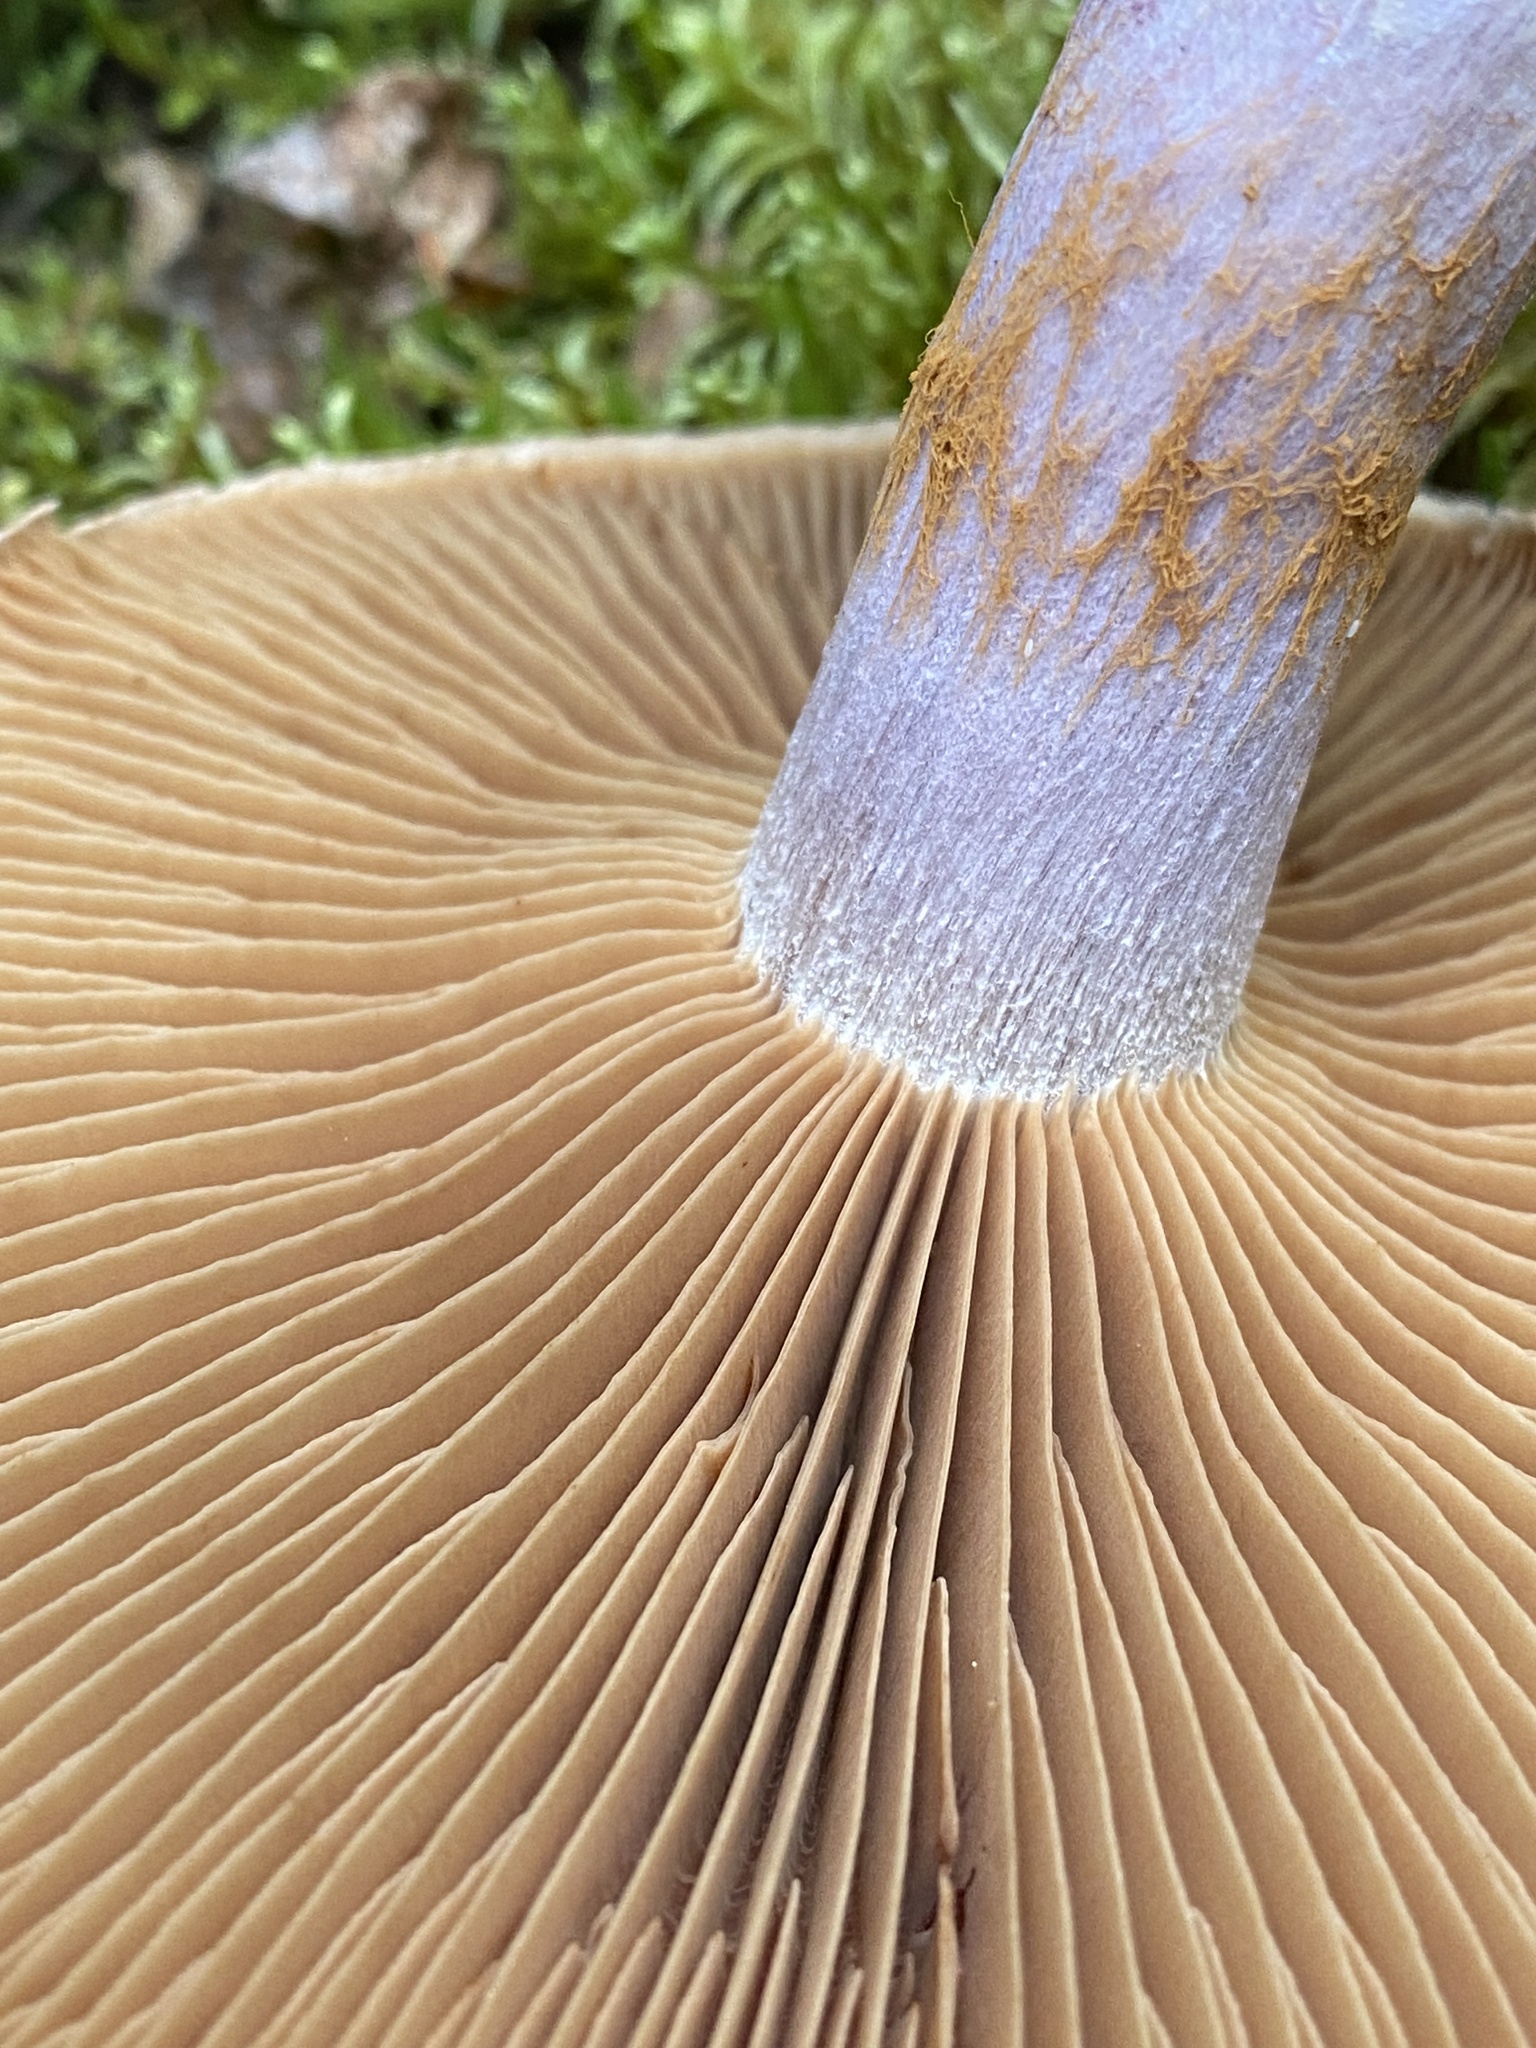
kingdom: Fungi
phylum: Basidiomycota
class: Agaricomycetes
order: Agaricales
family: Cortinariaceae
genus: Cortinarius
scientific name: Cortinarius traganus
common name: Gassy webcap
